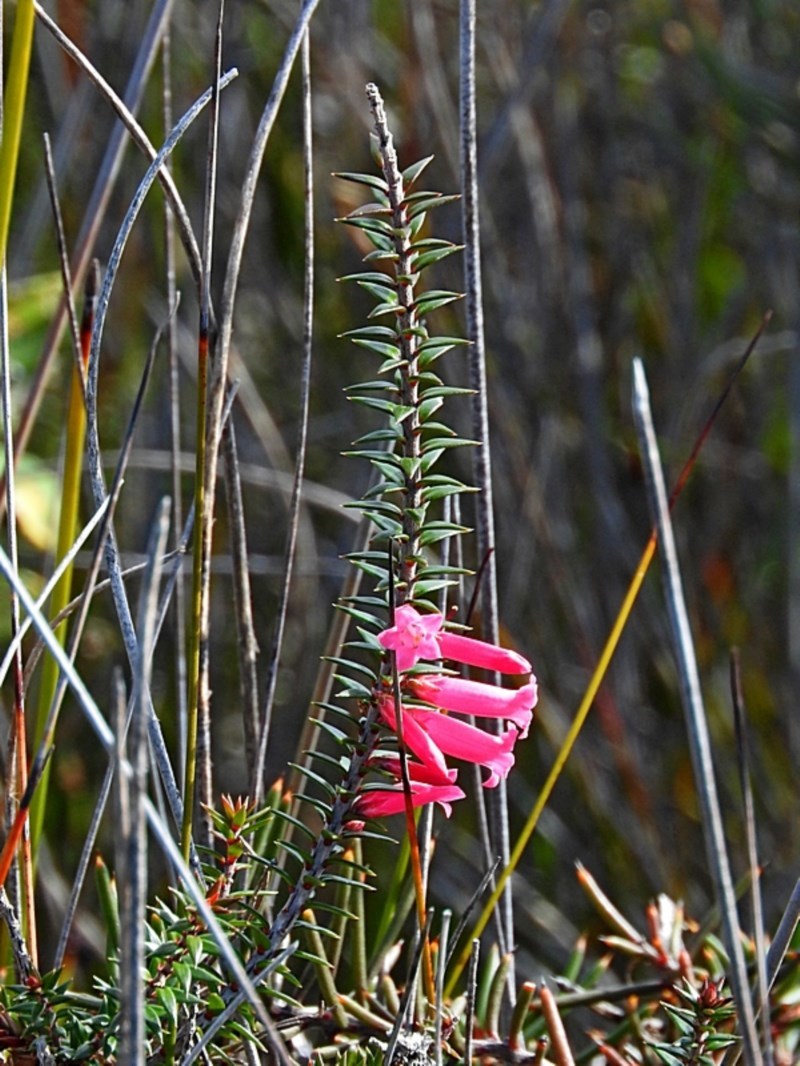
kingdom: Plantae
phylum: Tracheophyta
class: Magnoliopsida
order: Ericales
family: Ericaceae
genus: Epacris
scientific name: Epacris impressa
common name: Common-heath
